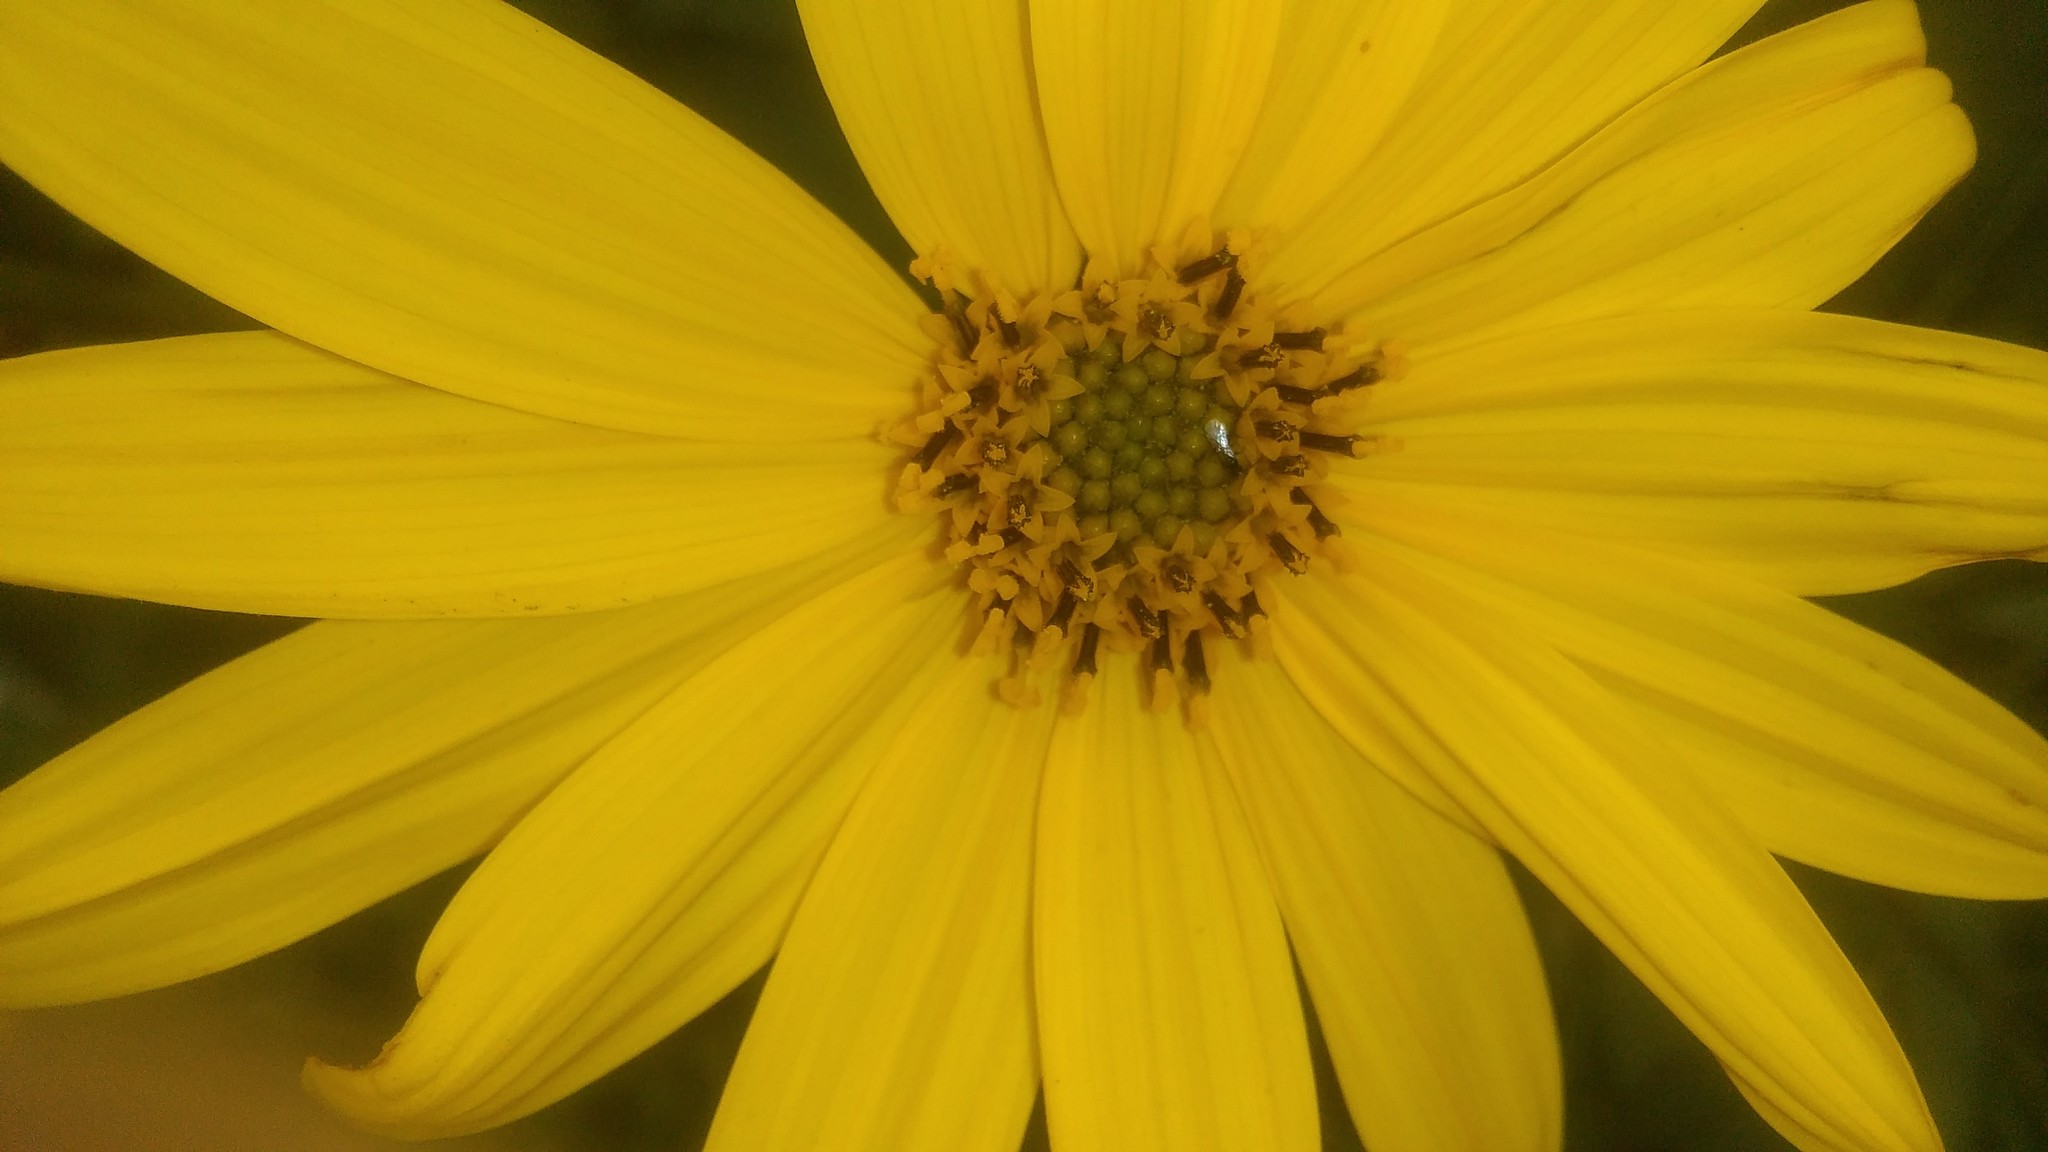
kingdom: Plantae
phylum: Tracheophyta
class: Magnoliopsida
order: Asterales
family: Asteraceae
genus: Helianthus
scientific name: Helianthus tuberosus
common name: Jerusalem artichoke
